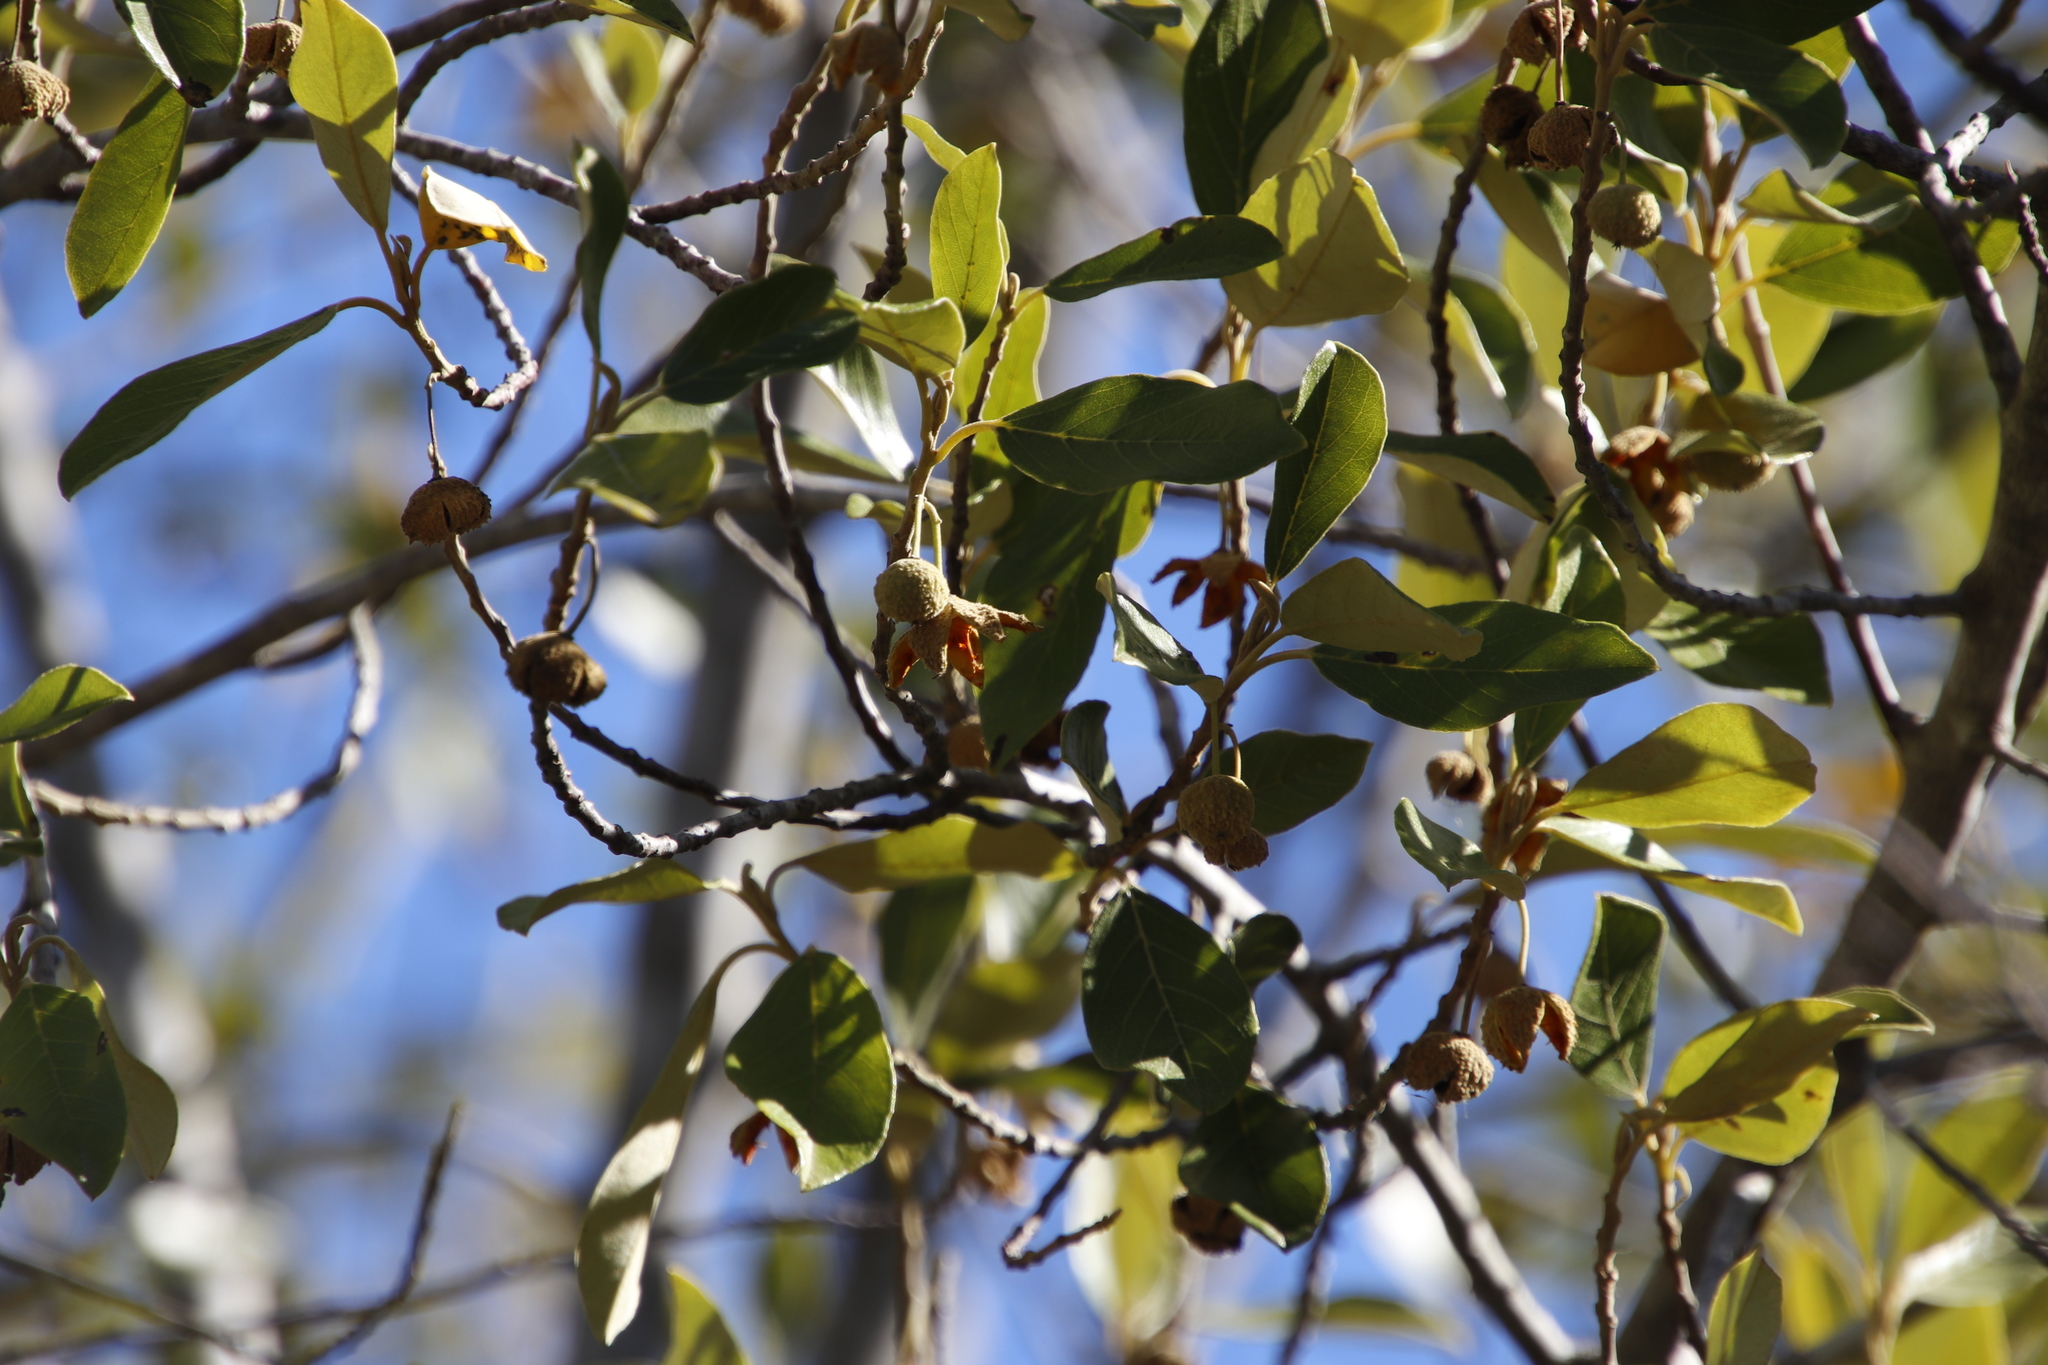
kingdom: Plantae
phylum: Tracheophyta
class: Magnoliopsida
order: Malpighiales
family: Achariaceae
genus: Kiggelaria
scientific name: Kiggelaria africana
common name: Wild peach
